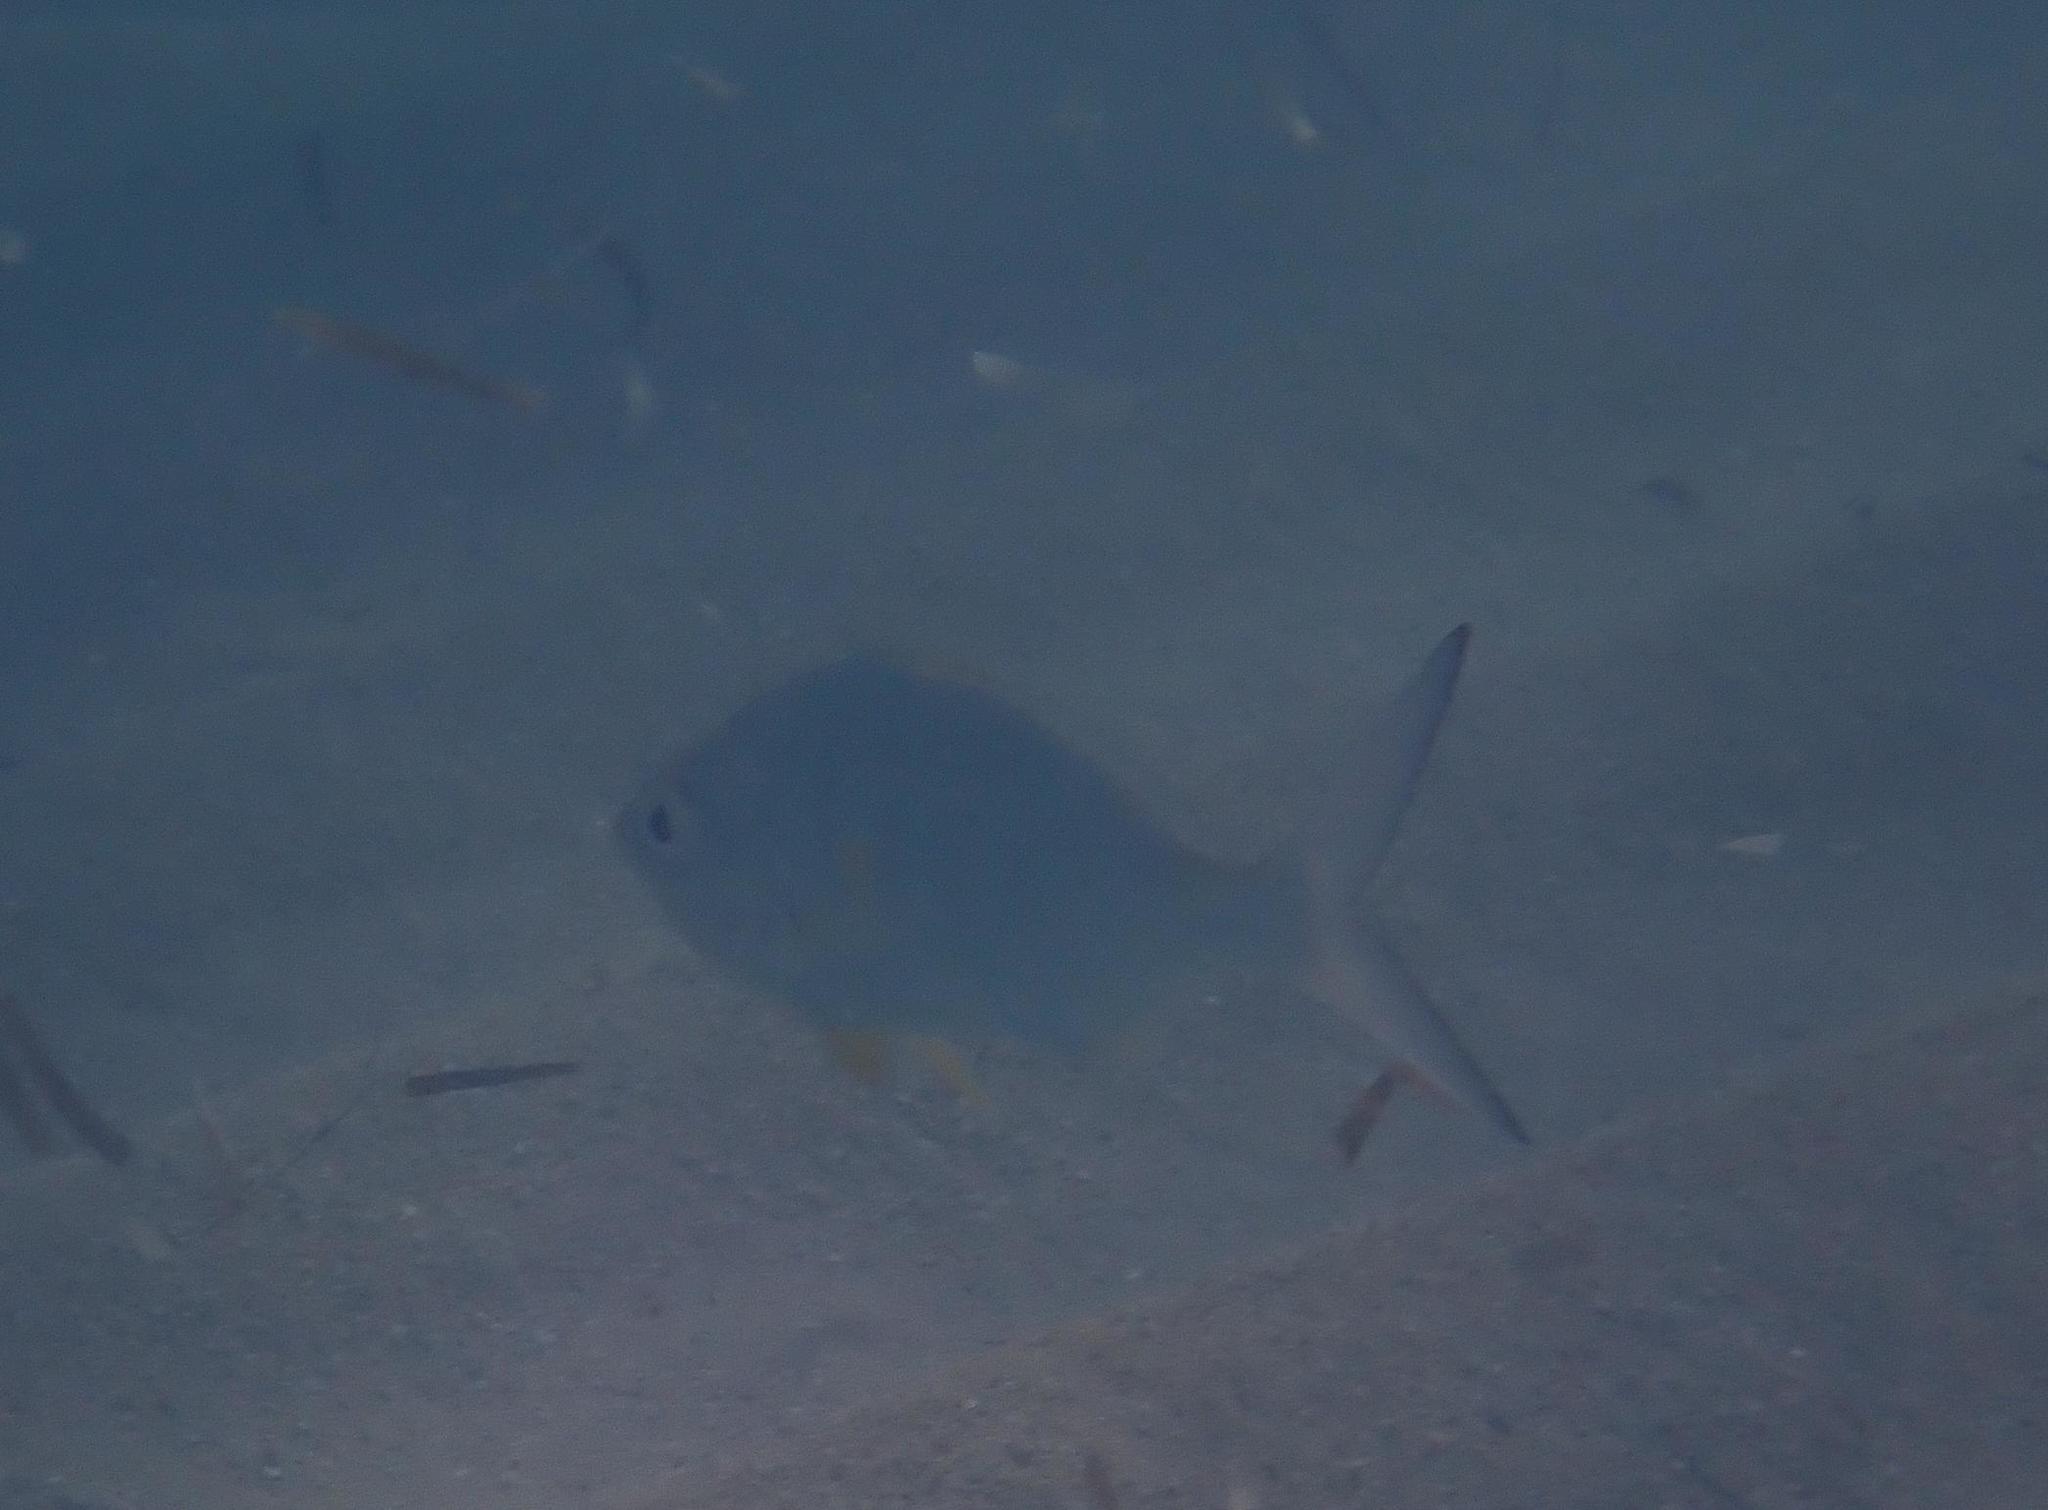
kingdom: Animalia
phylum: Chordata
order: Perciformes
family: Gerreidae
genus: Gerres
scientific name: Gerres cinereus
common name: Hedow
